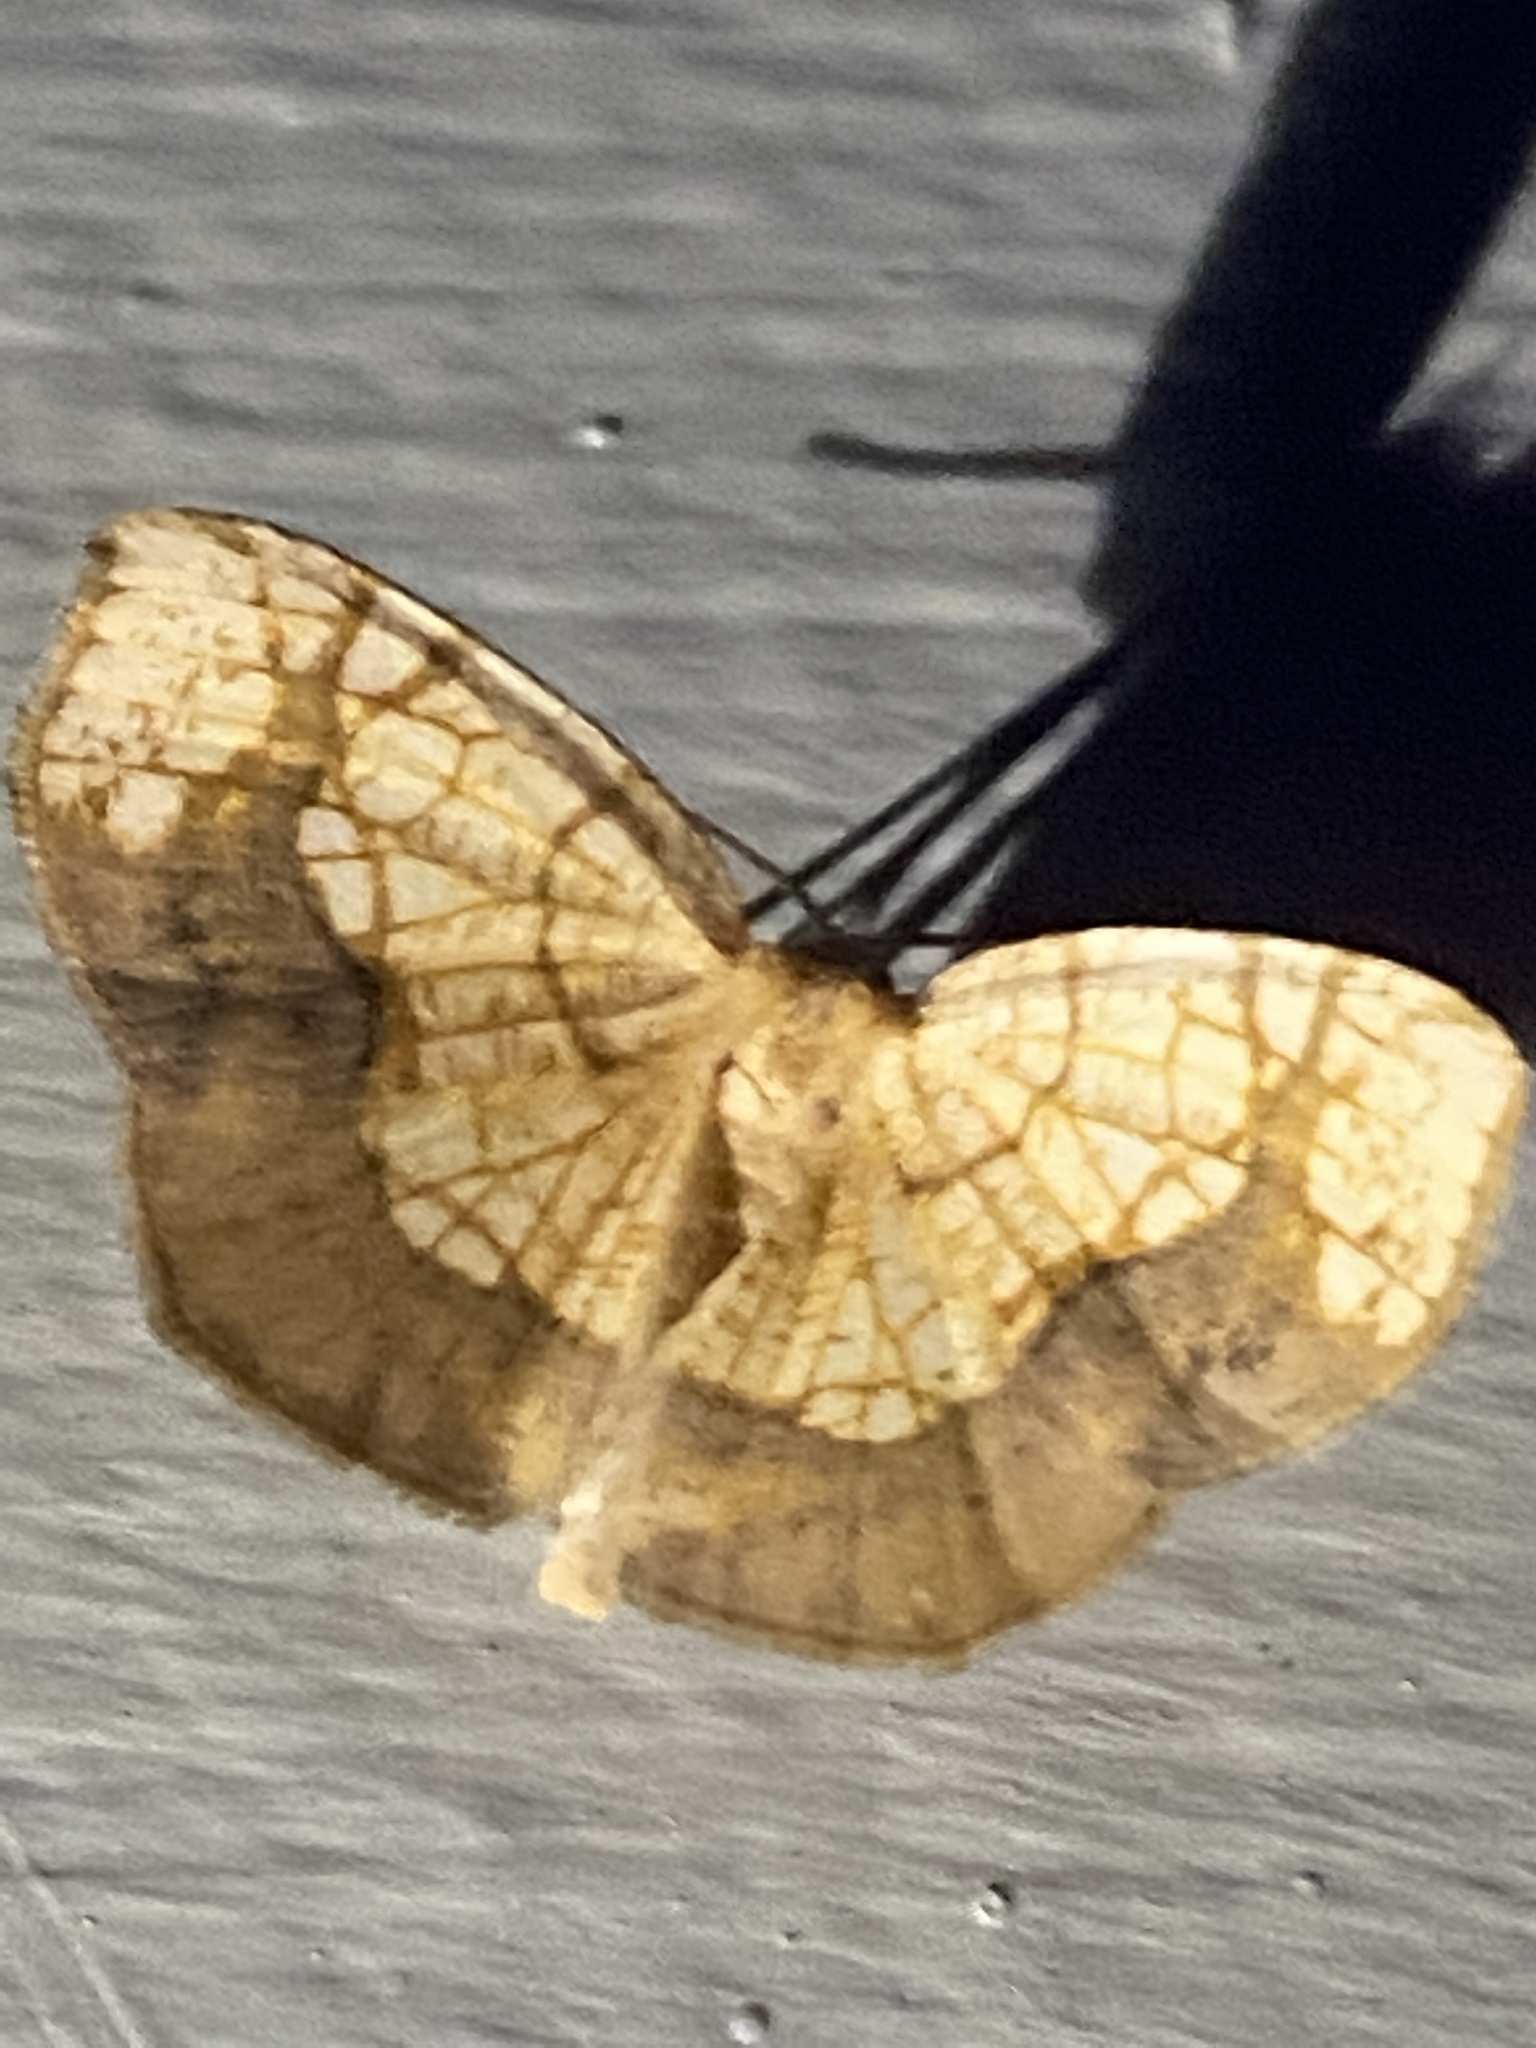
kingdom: Animalia
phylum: Arthropoda
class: Insecta
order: Lepidoptera
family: Geometridae
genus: Nematocampa
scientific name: Nematocampa resistaria
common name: Horned spanworm moth
